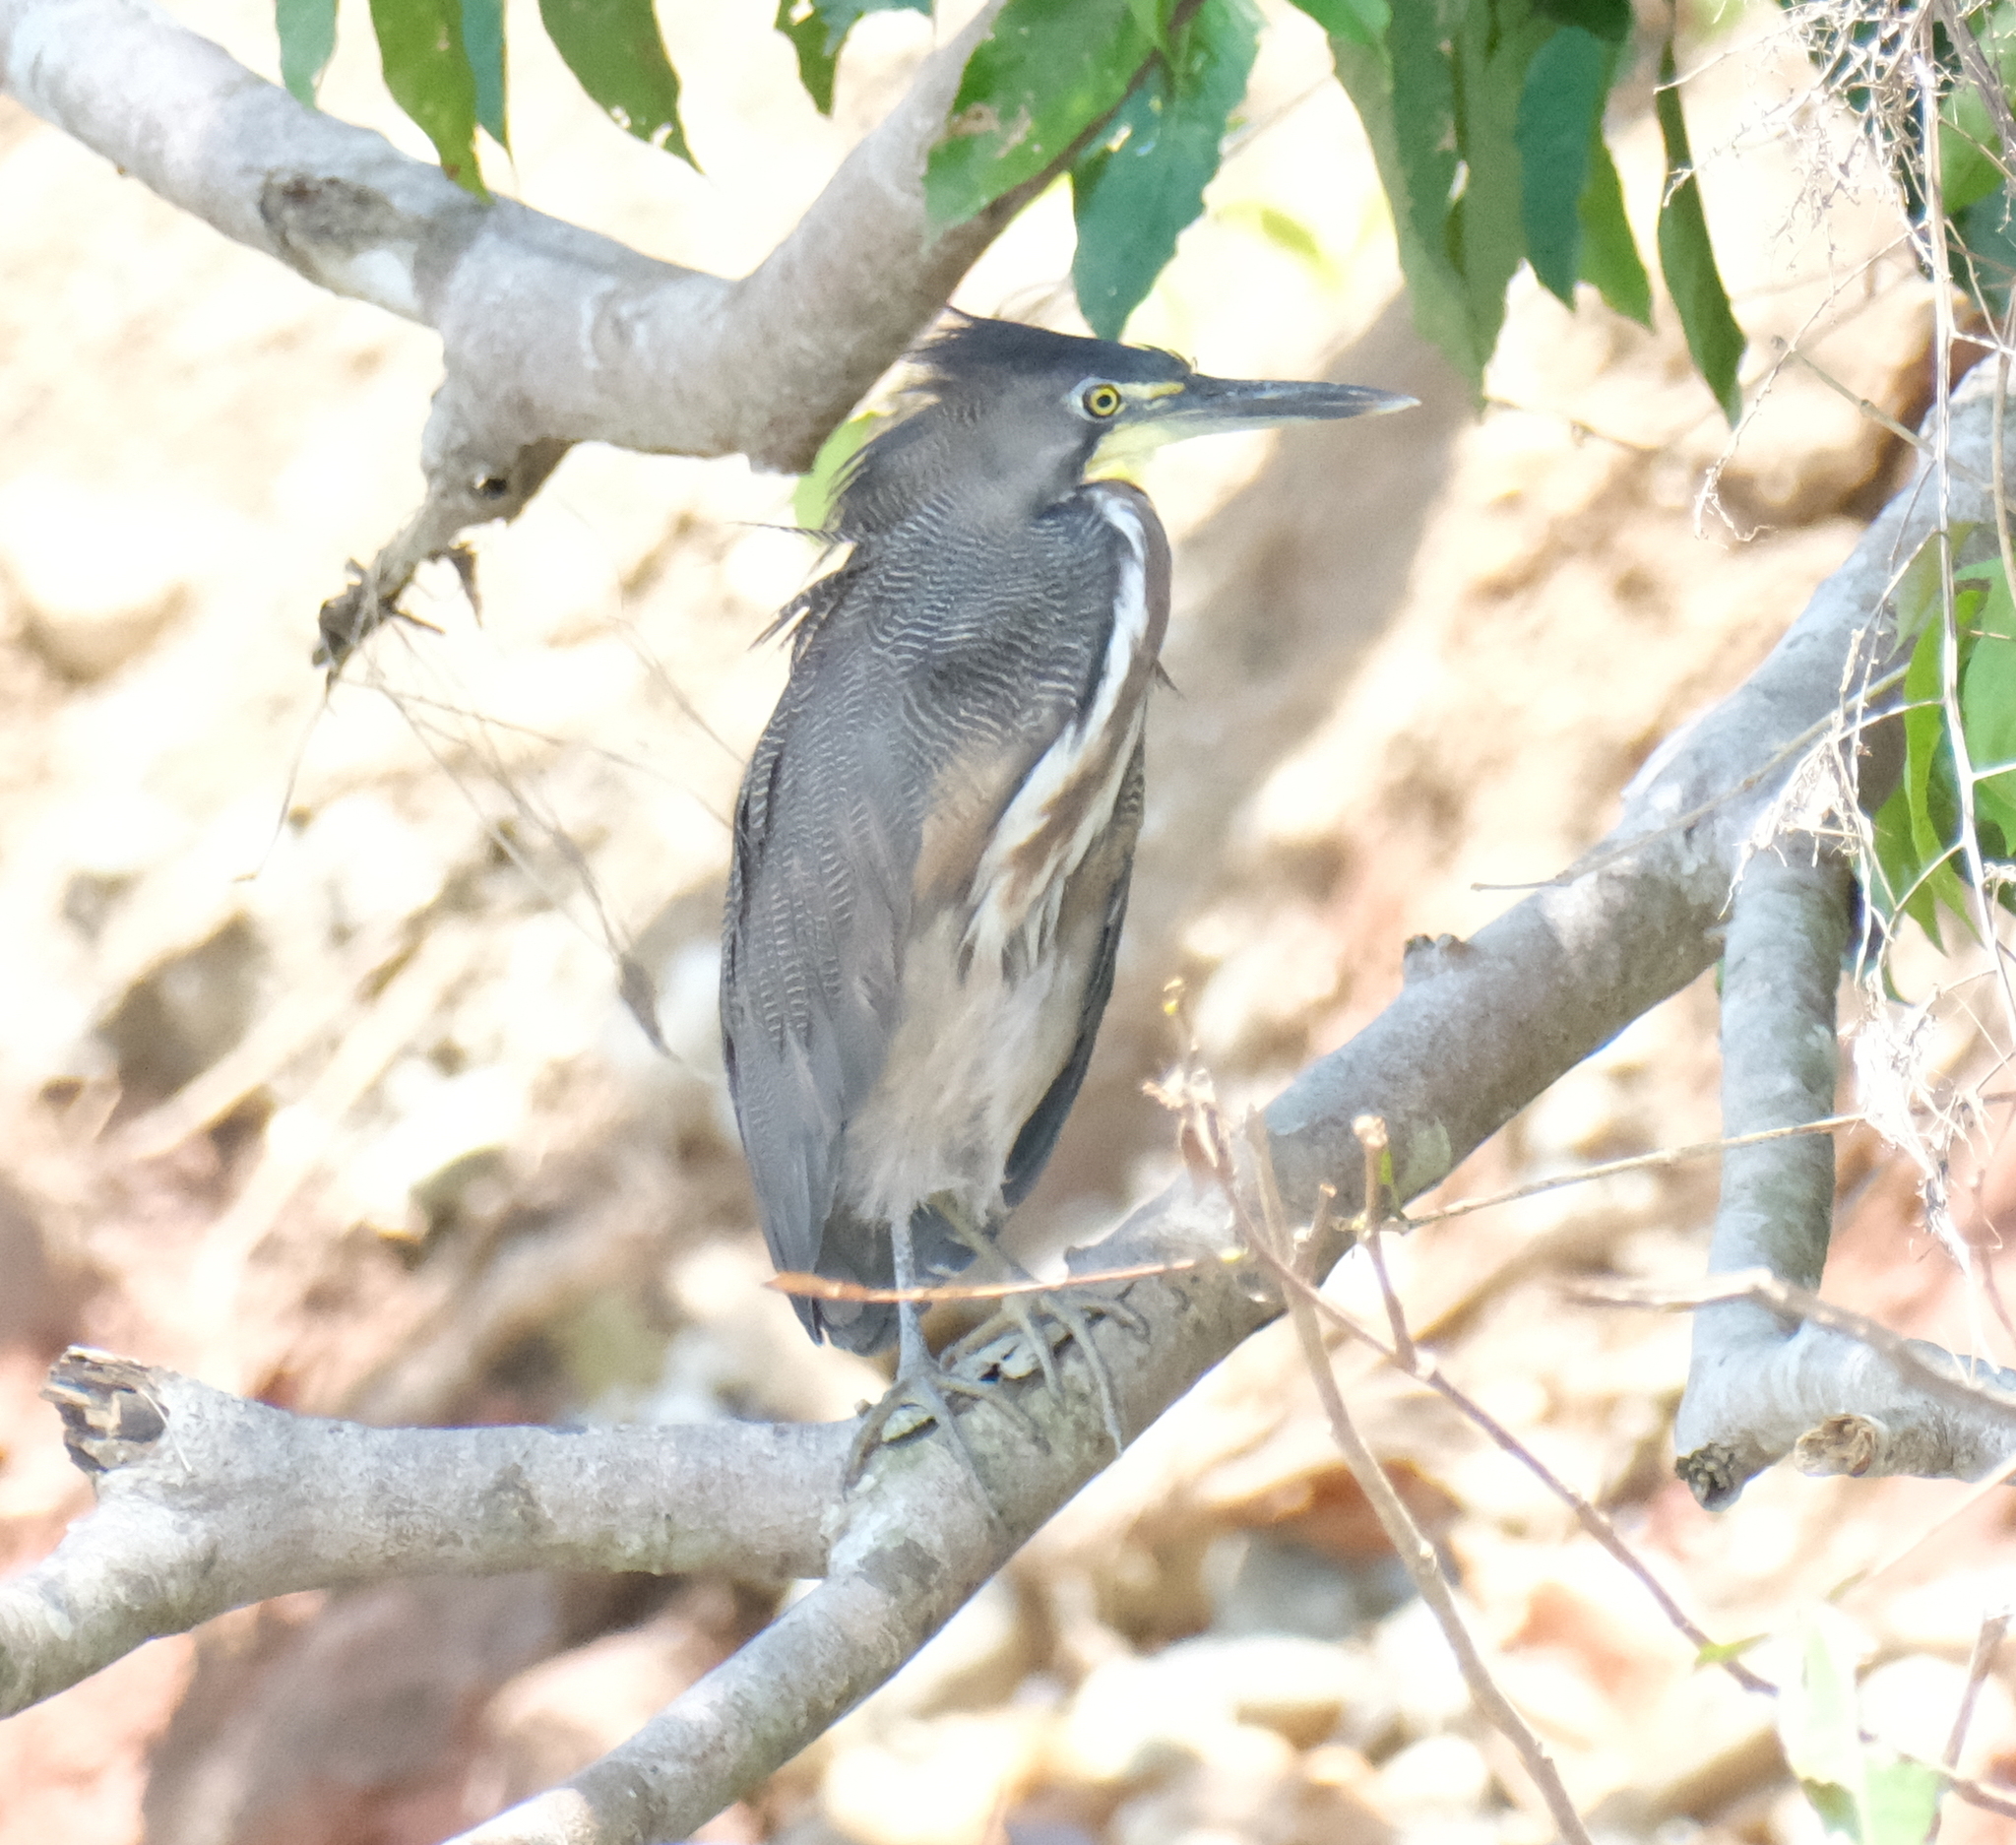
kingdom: Animalia
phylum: Chordata
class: Aves
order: Pelecaniformes
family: Ardeidae
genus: Tigrisoma
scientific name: Tigrisoma fasciatum
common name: Fasciated tiger-heron
